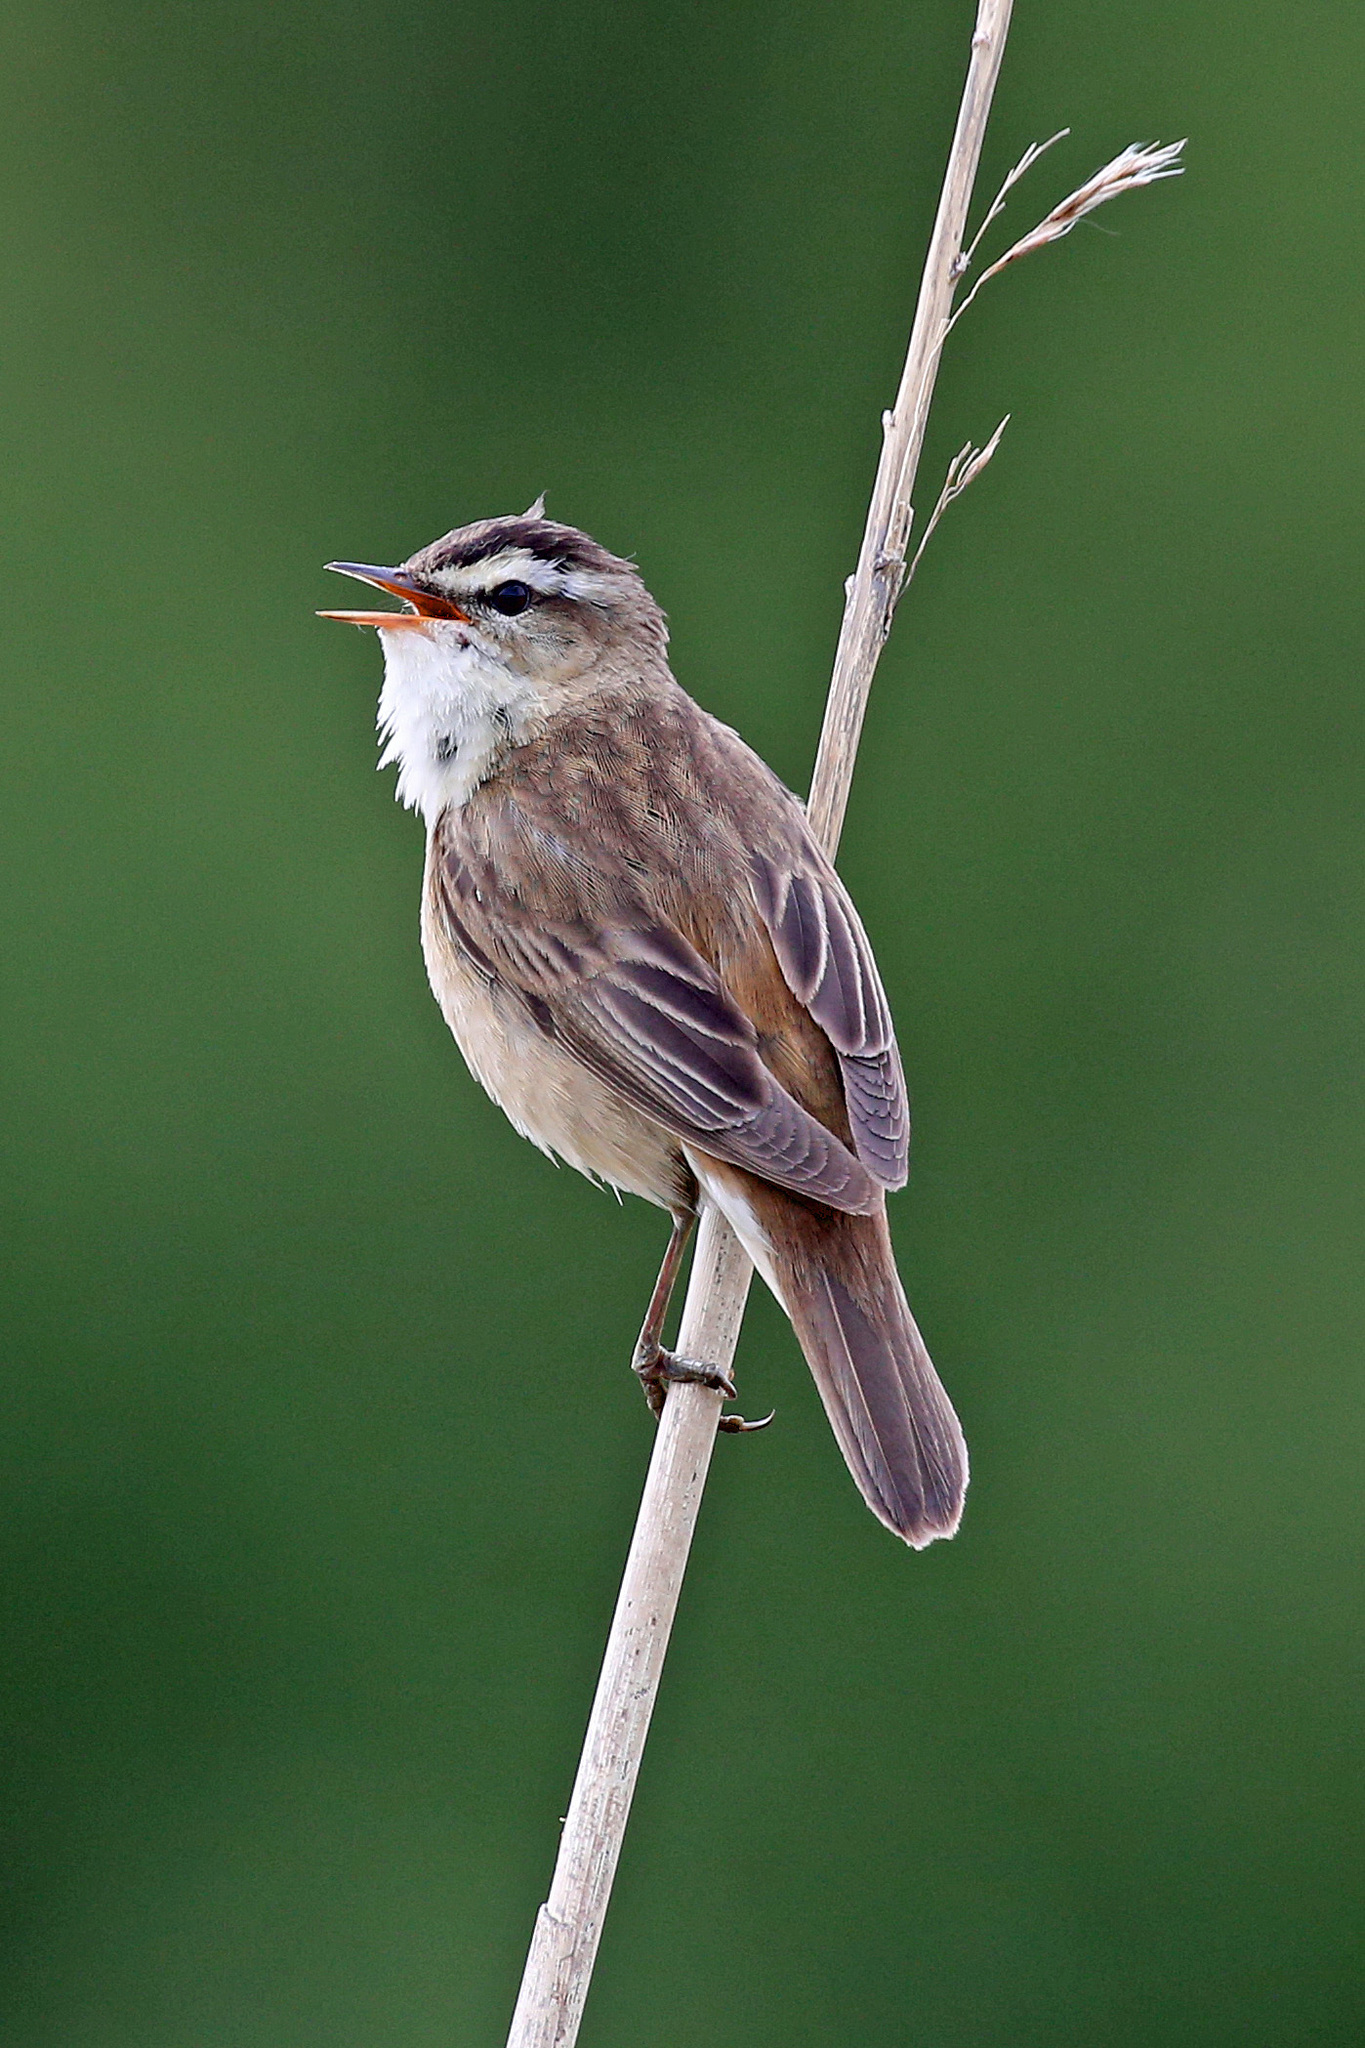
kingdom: Animalia
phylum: Chordata
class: Aves
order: Passeriformes
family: Acrocephalidae
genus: Acrocephalus
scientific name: Acrocephalus schoenobaenus
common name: Sedge warbler
